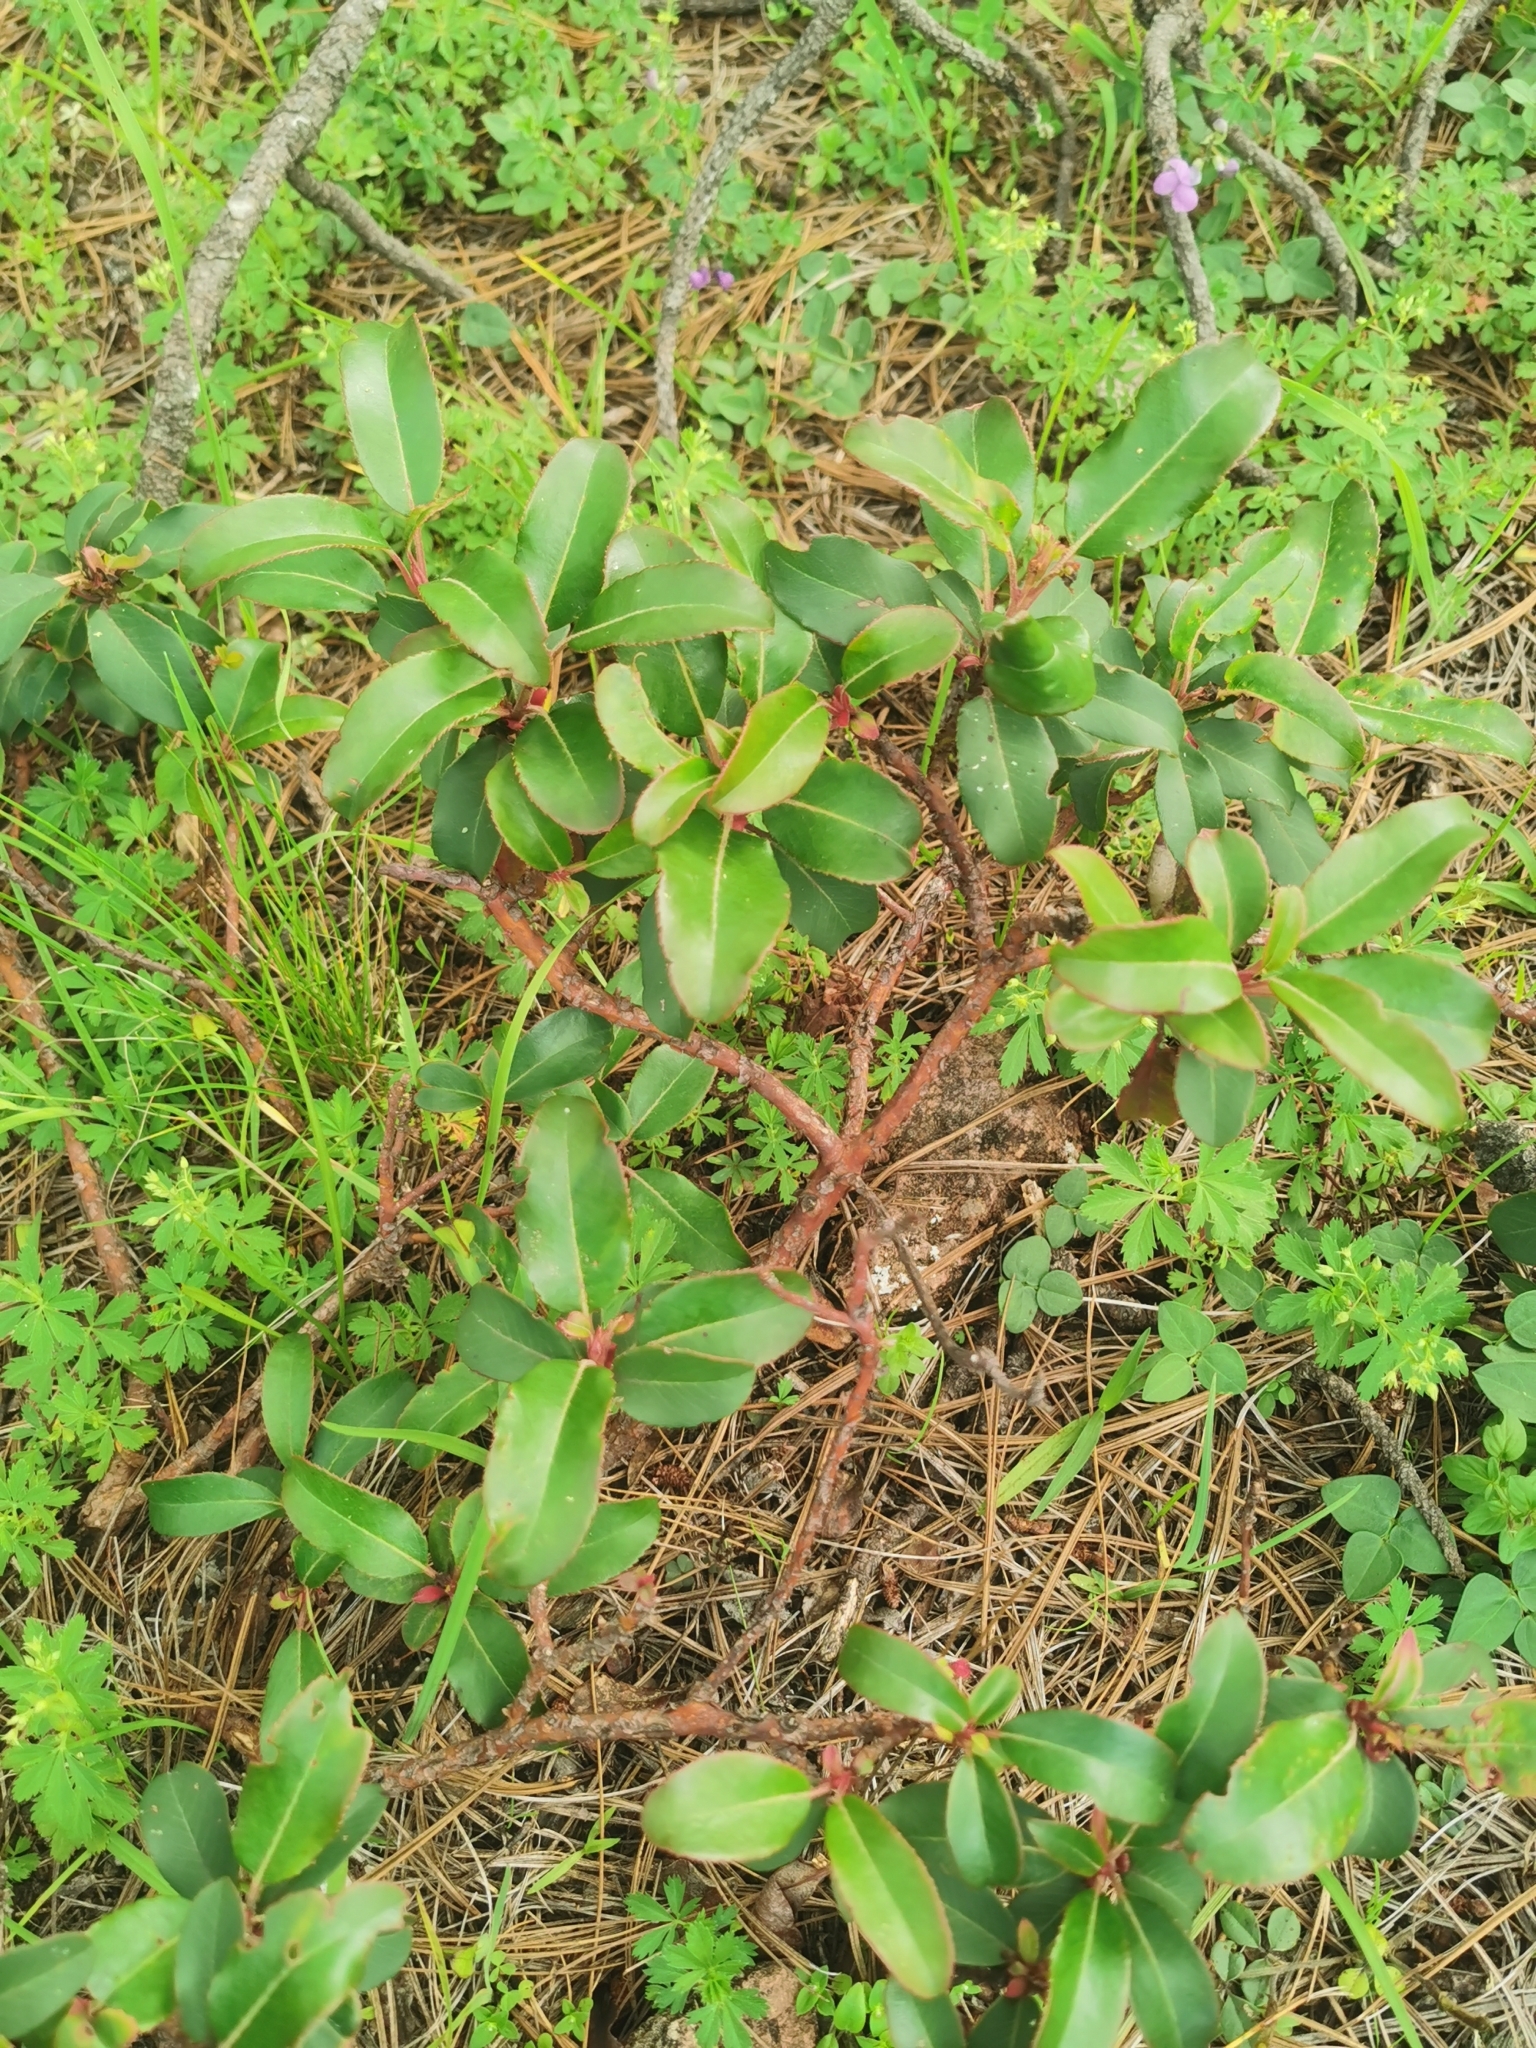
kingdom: Plantae
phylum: Tracheophyta
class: Magnoliopsida
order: Ericales
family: Ericaceae
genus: Arbutus
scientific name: Arbutus mollis
